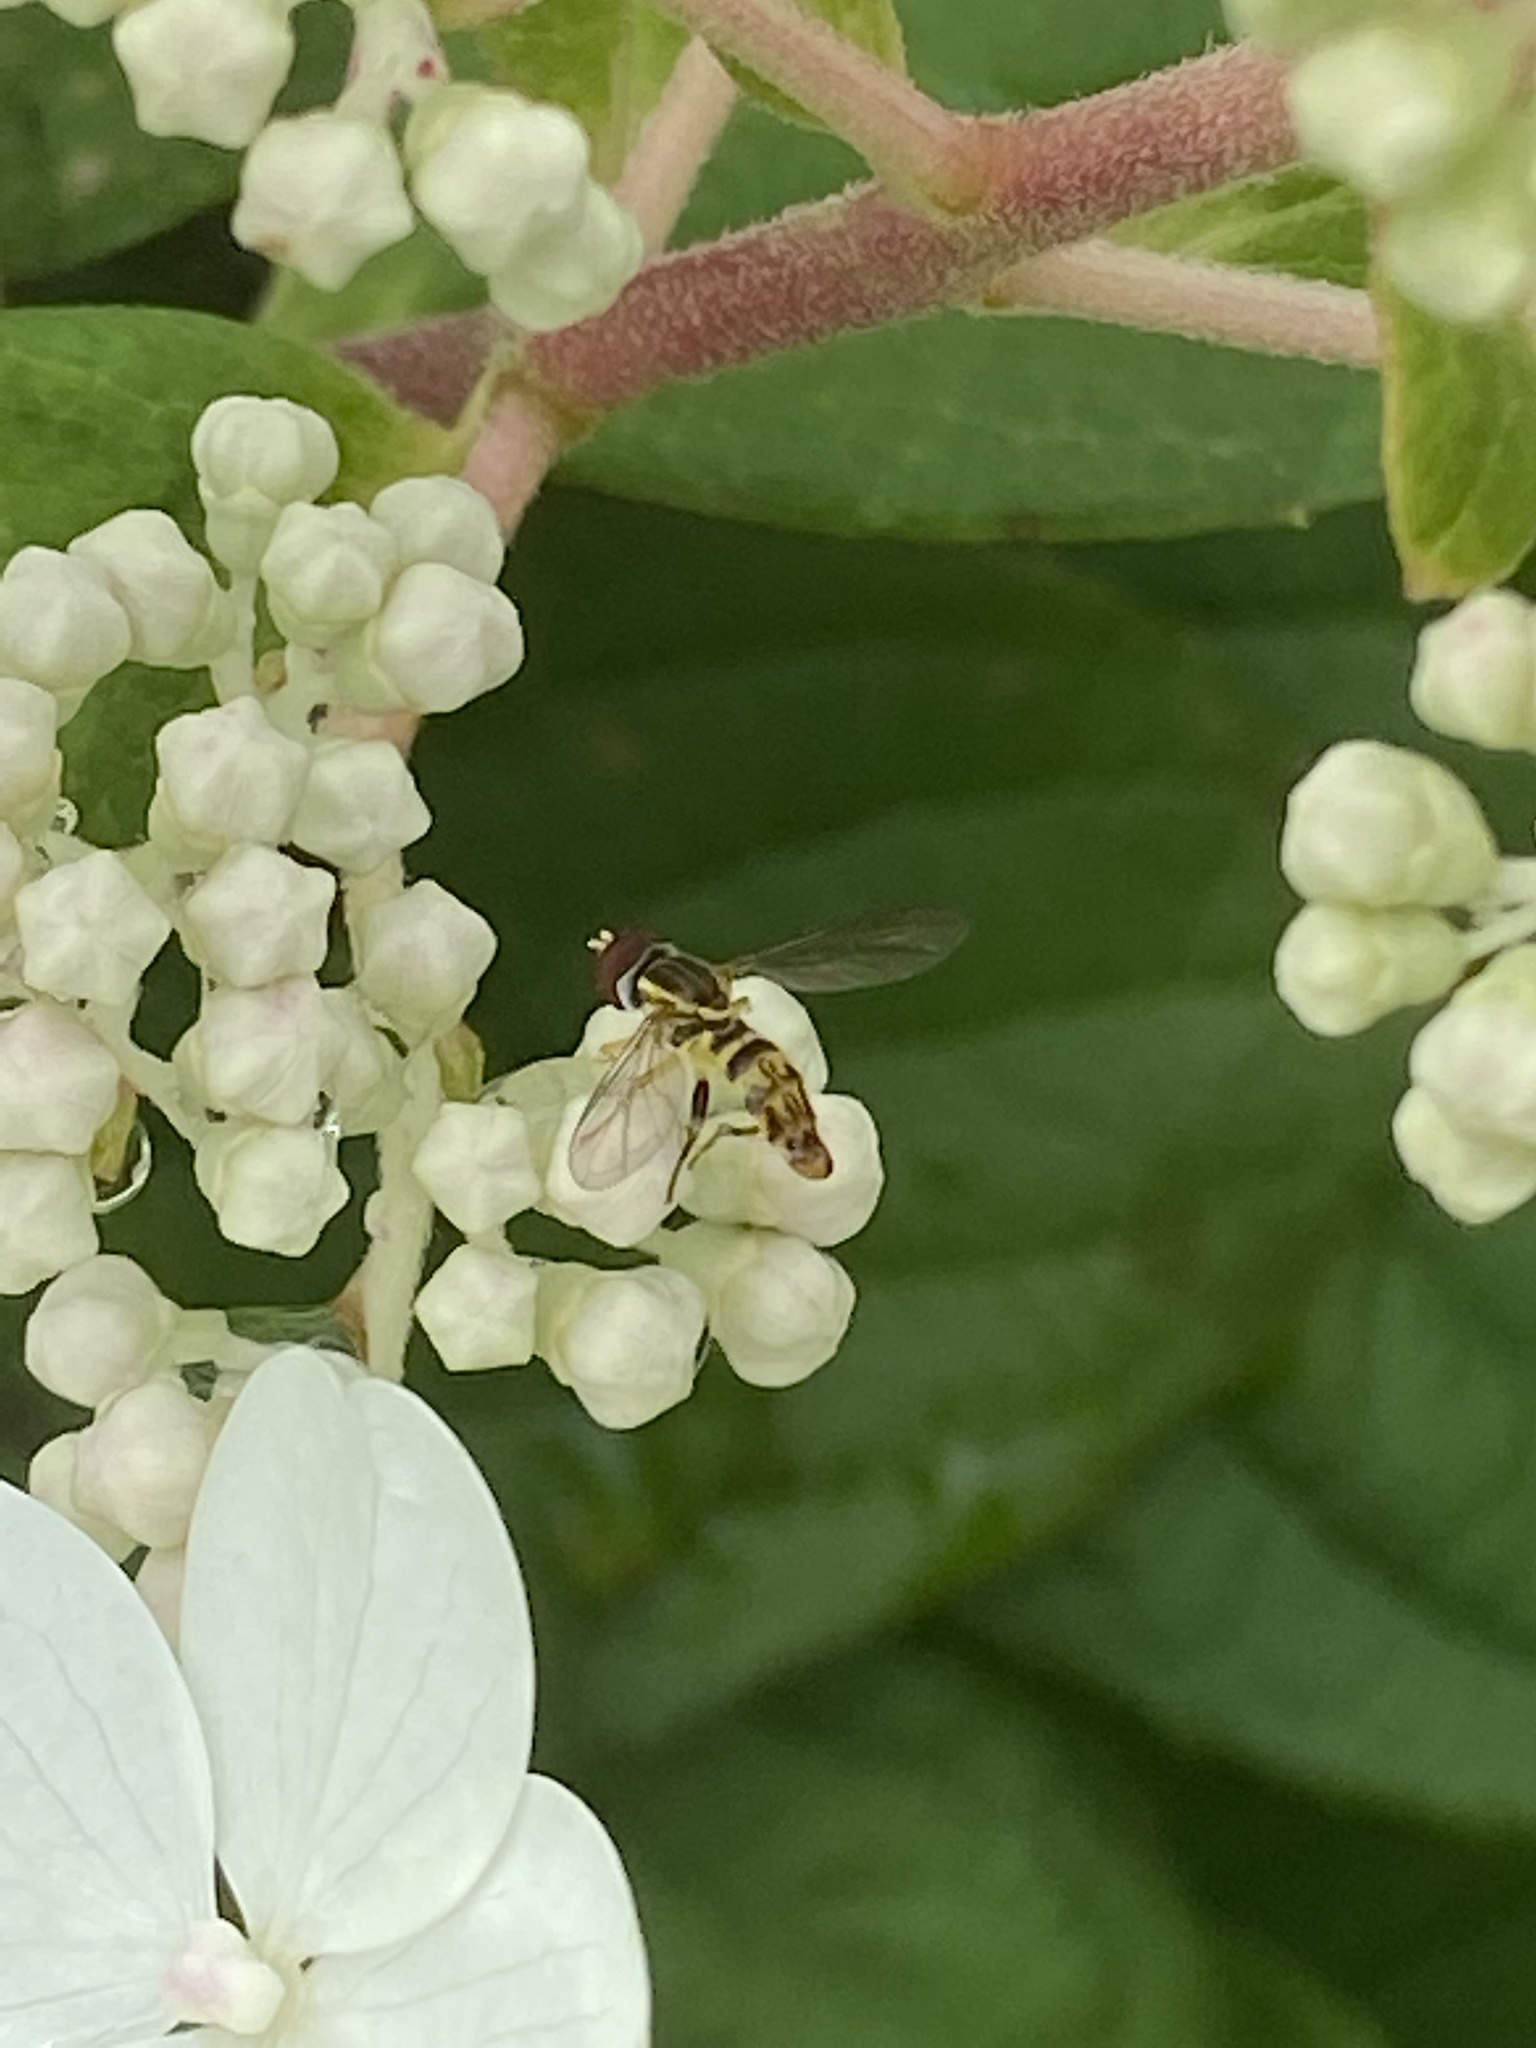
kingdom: Animalia
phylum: Arthropoda
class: Insecta
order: Diptera
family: Syrphidae
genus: Toxomerus
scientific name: Toxomerus geminatus
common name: Eastern calligrapher
